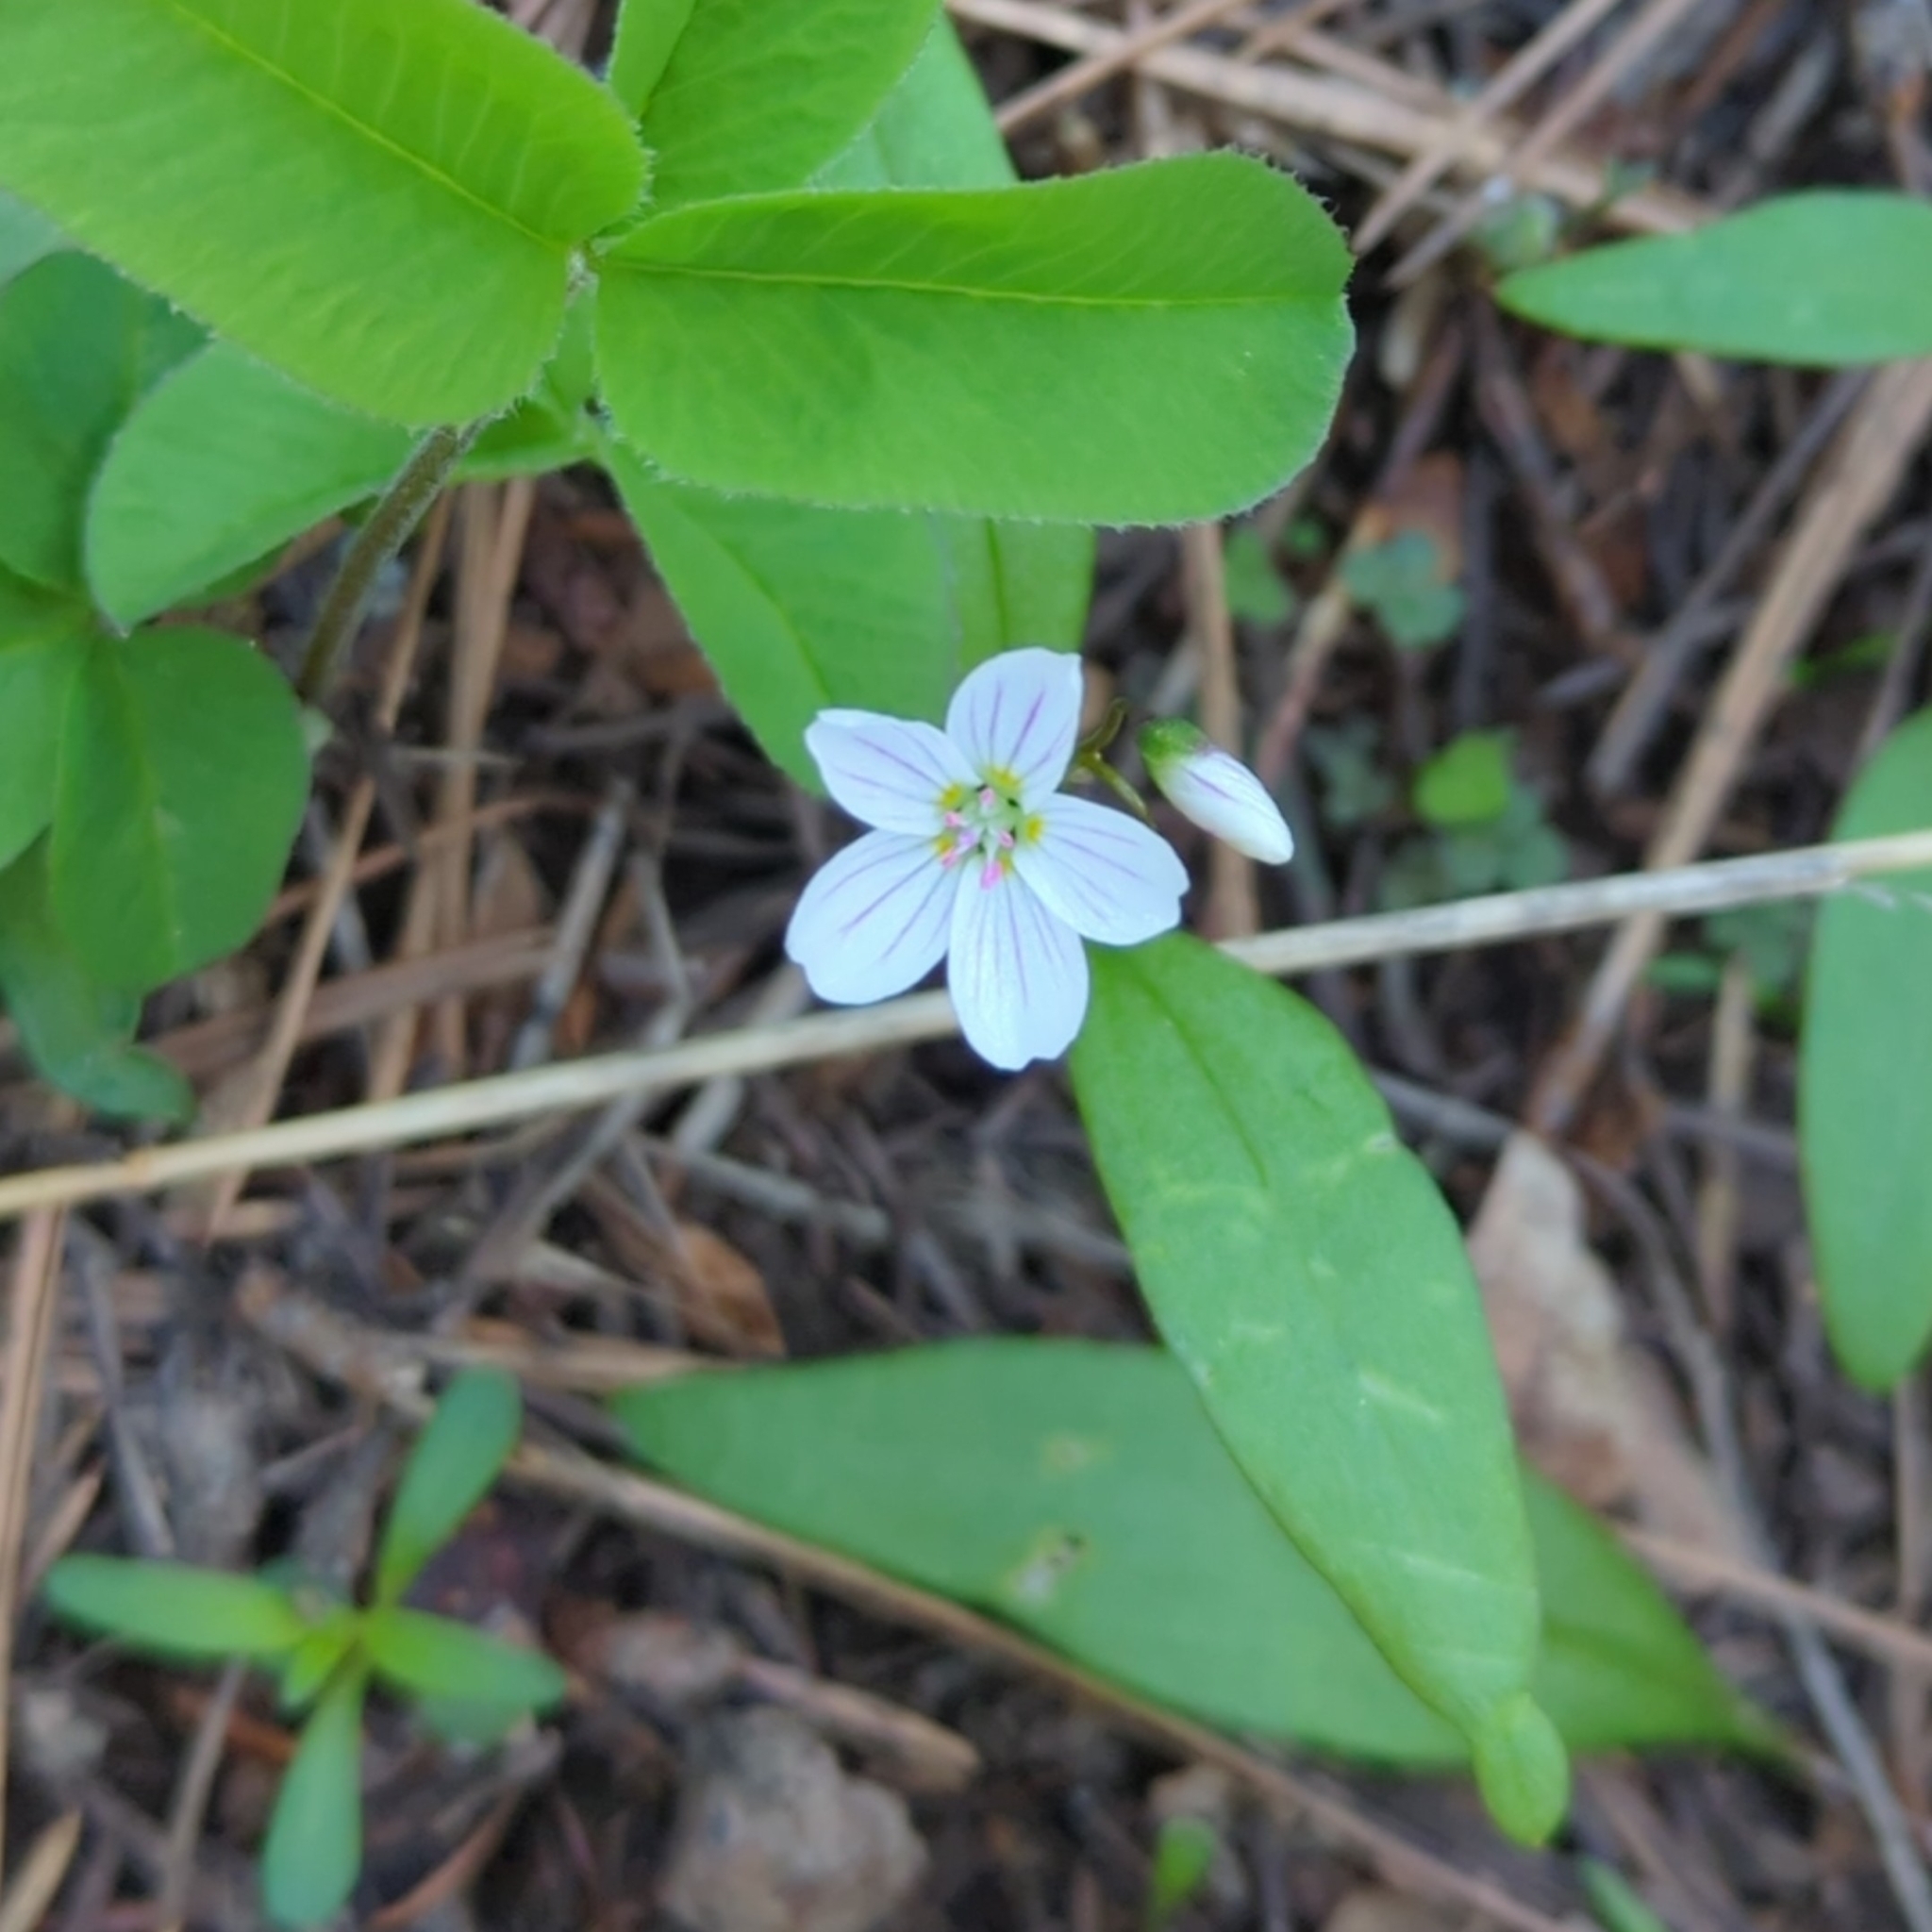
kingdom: Plantae
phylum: Tracheophyta
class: Magnoliopsida
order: Caryophyllales
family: Montiaceae
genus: Claytonia
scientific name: Claytonia lanceolata
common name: Western spring-beauty
